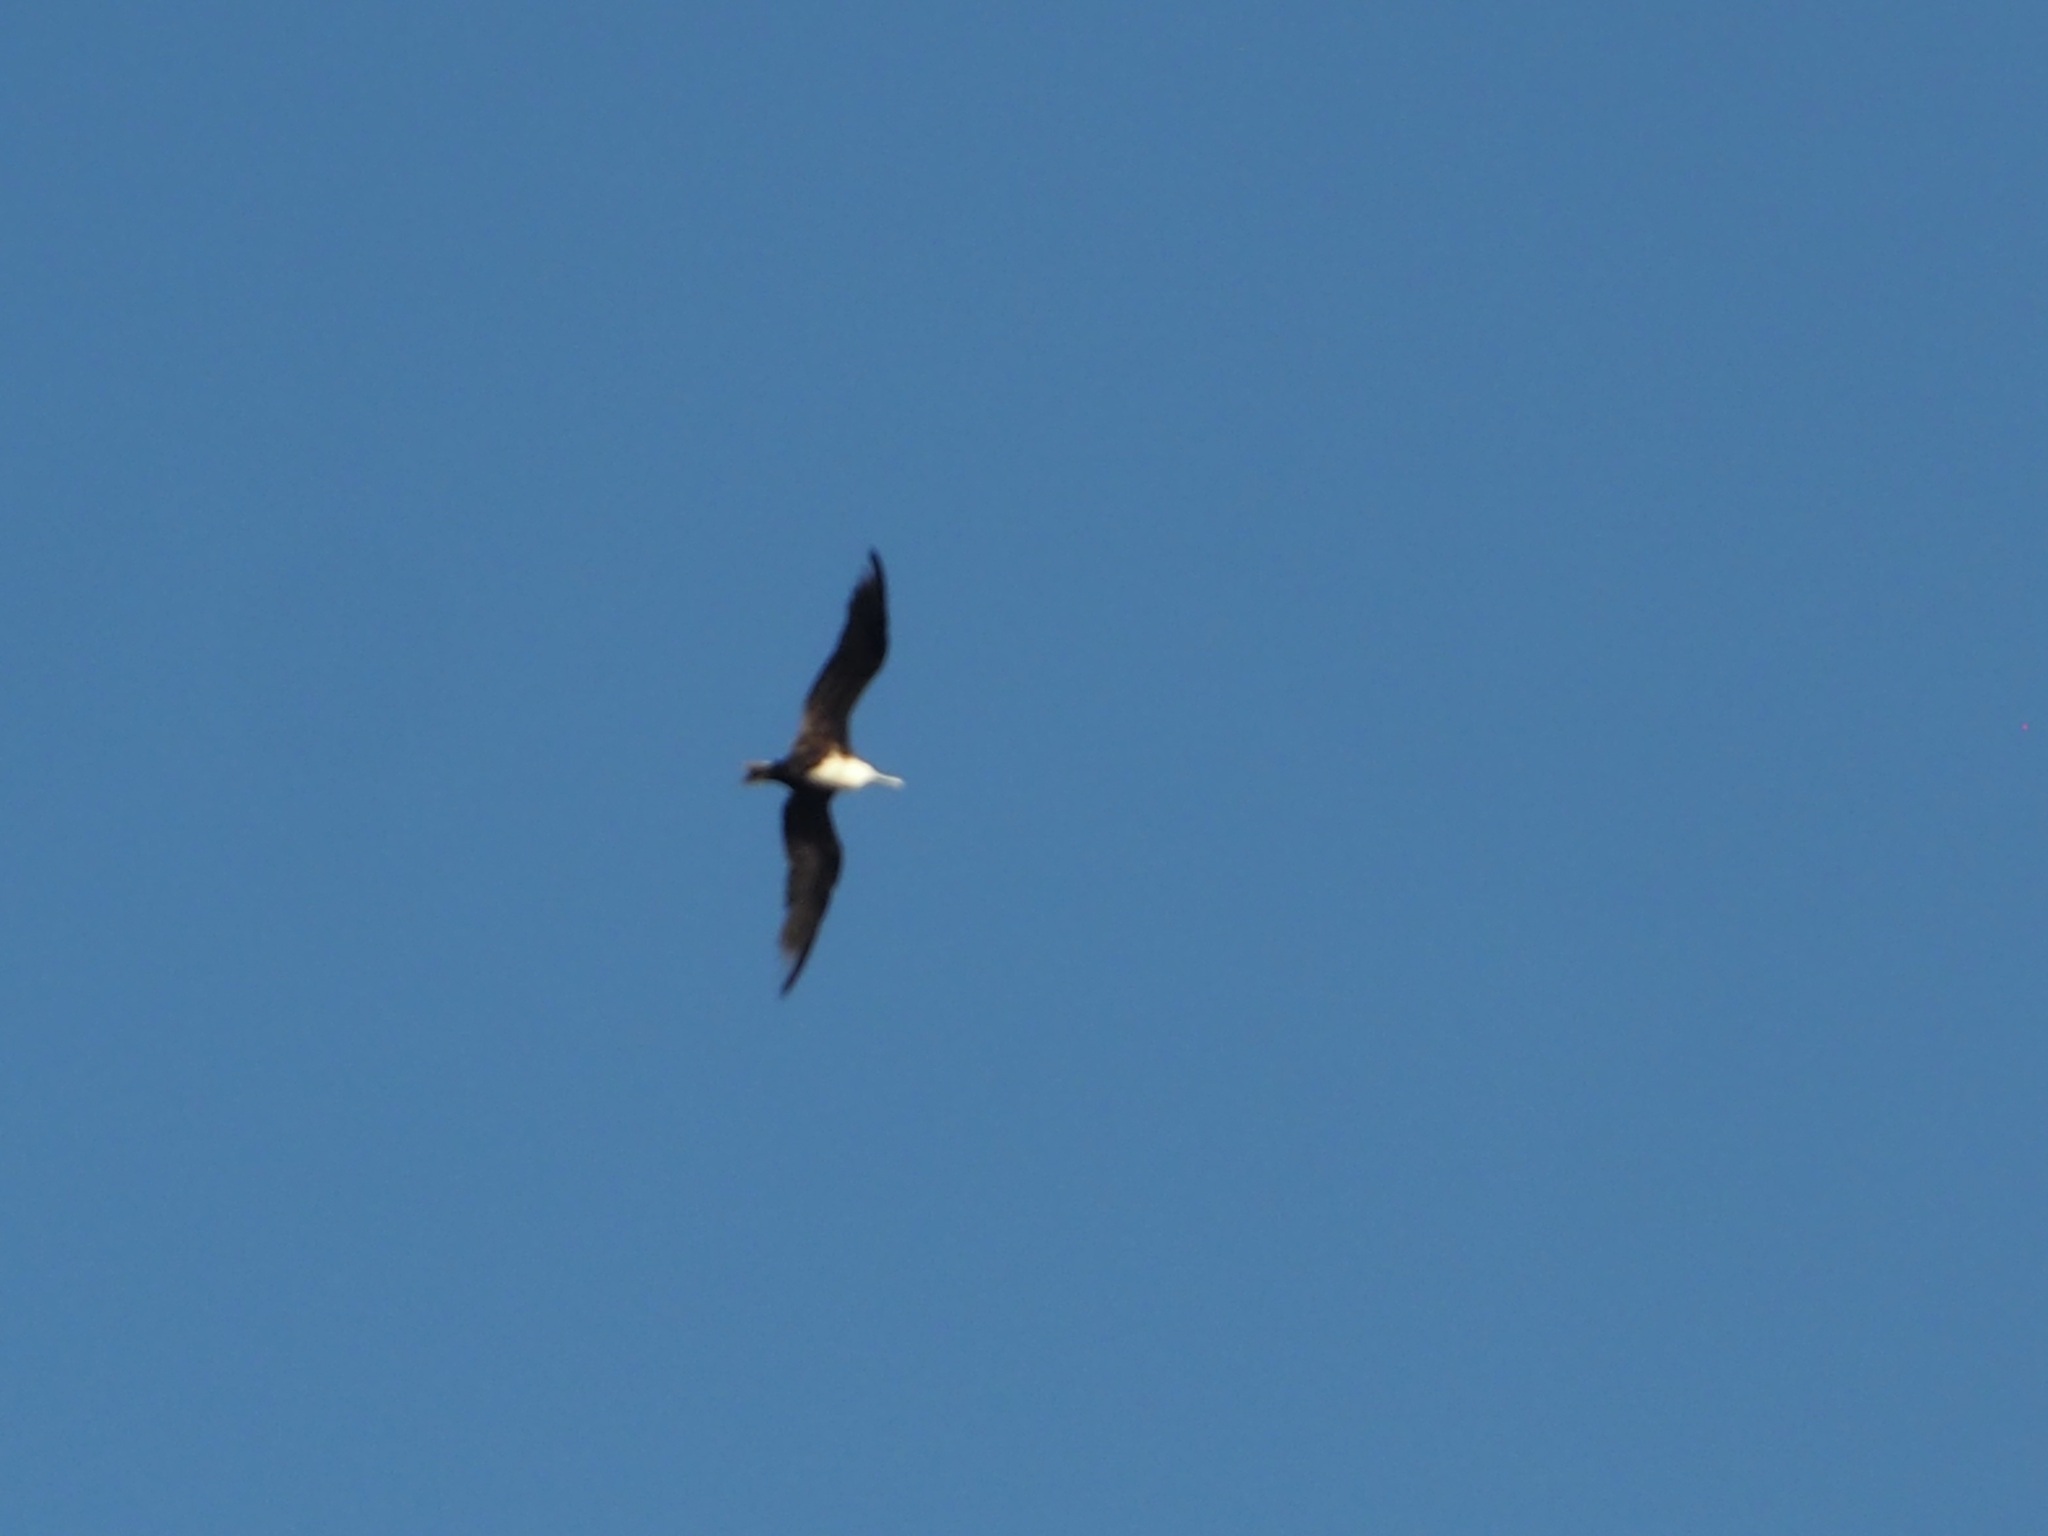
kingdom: Animalia
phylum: Chordata
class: Aves
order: Suliformes
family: Fregatidae
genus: Fregata
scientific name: Fregata magnificens
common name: Magnificent frigatebird
